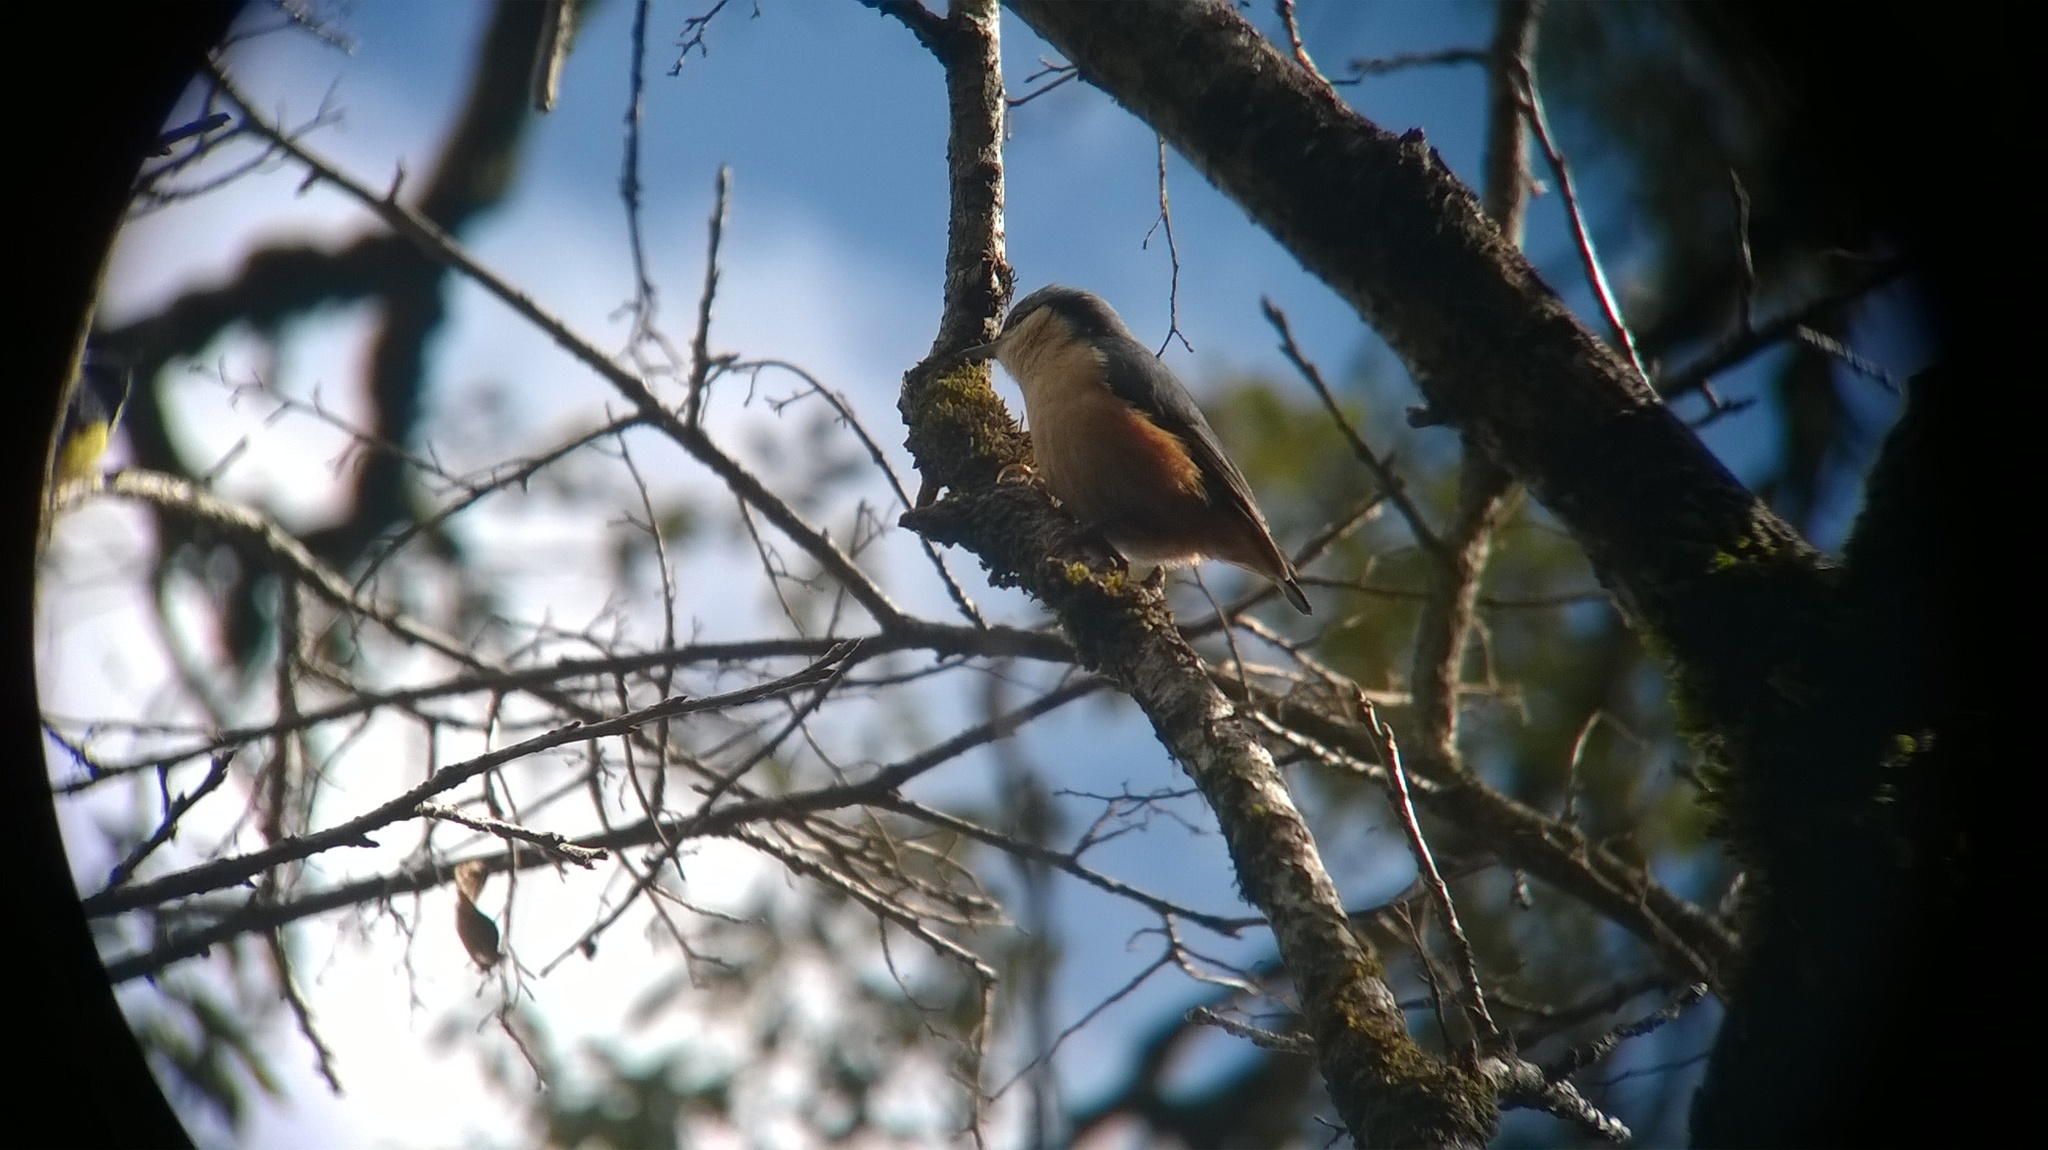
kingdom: Animalia
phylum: Chordata
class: Aves
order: Passeriformes
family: Sittidae
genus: Sitta
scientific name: Sitta himalayensis
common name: White-tailed nuthatch
